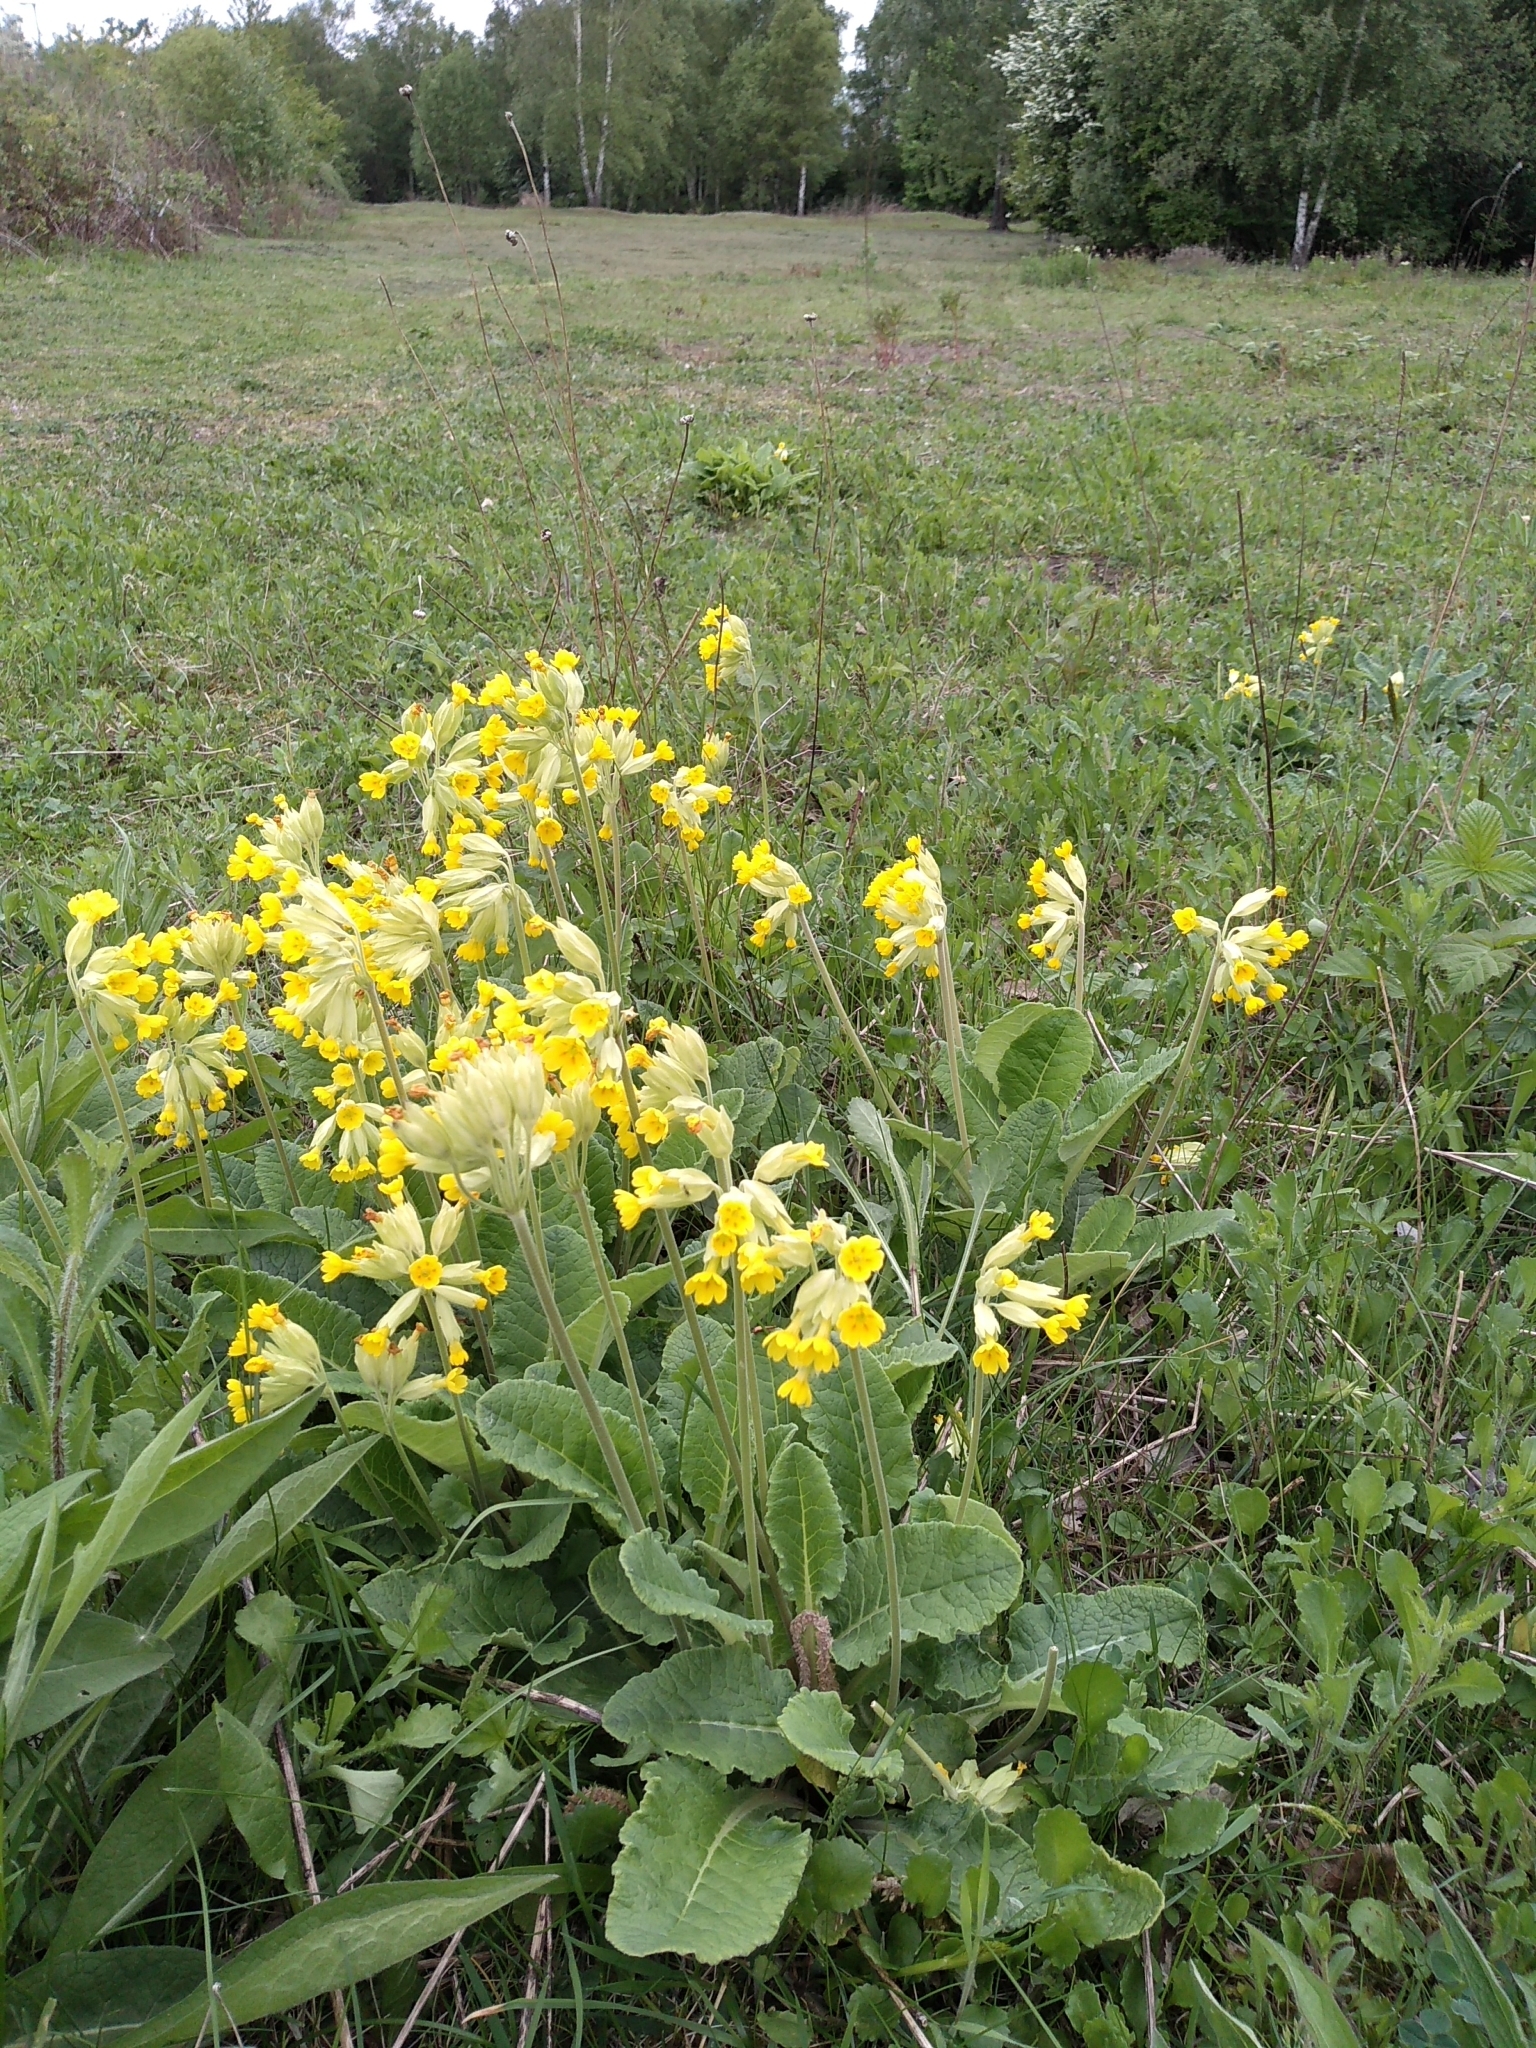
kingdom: Plantae
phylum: Tracheophyta
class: Magnoliopsida
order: Ericales
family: Primulaceae
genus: Primula
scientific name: Primula veris
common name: Cowslip
